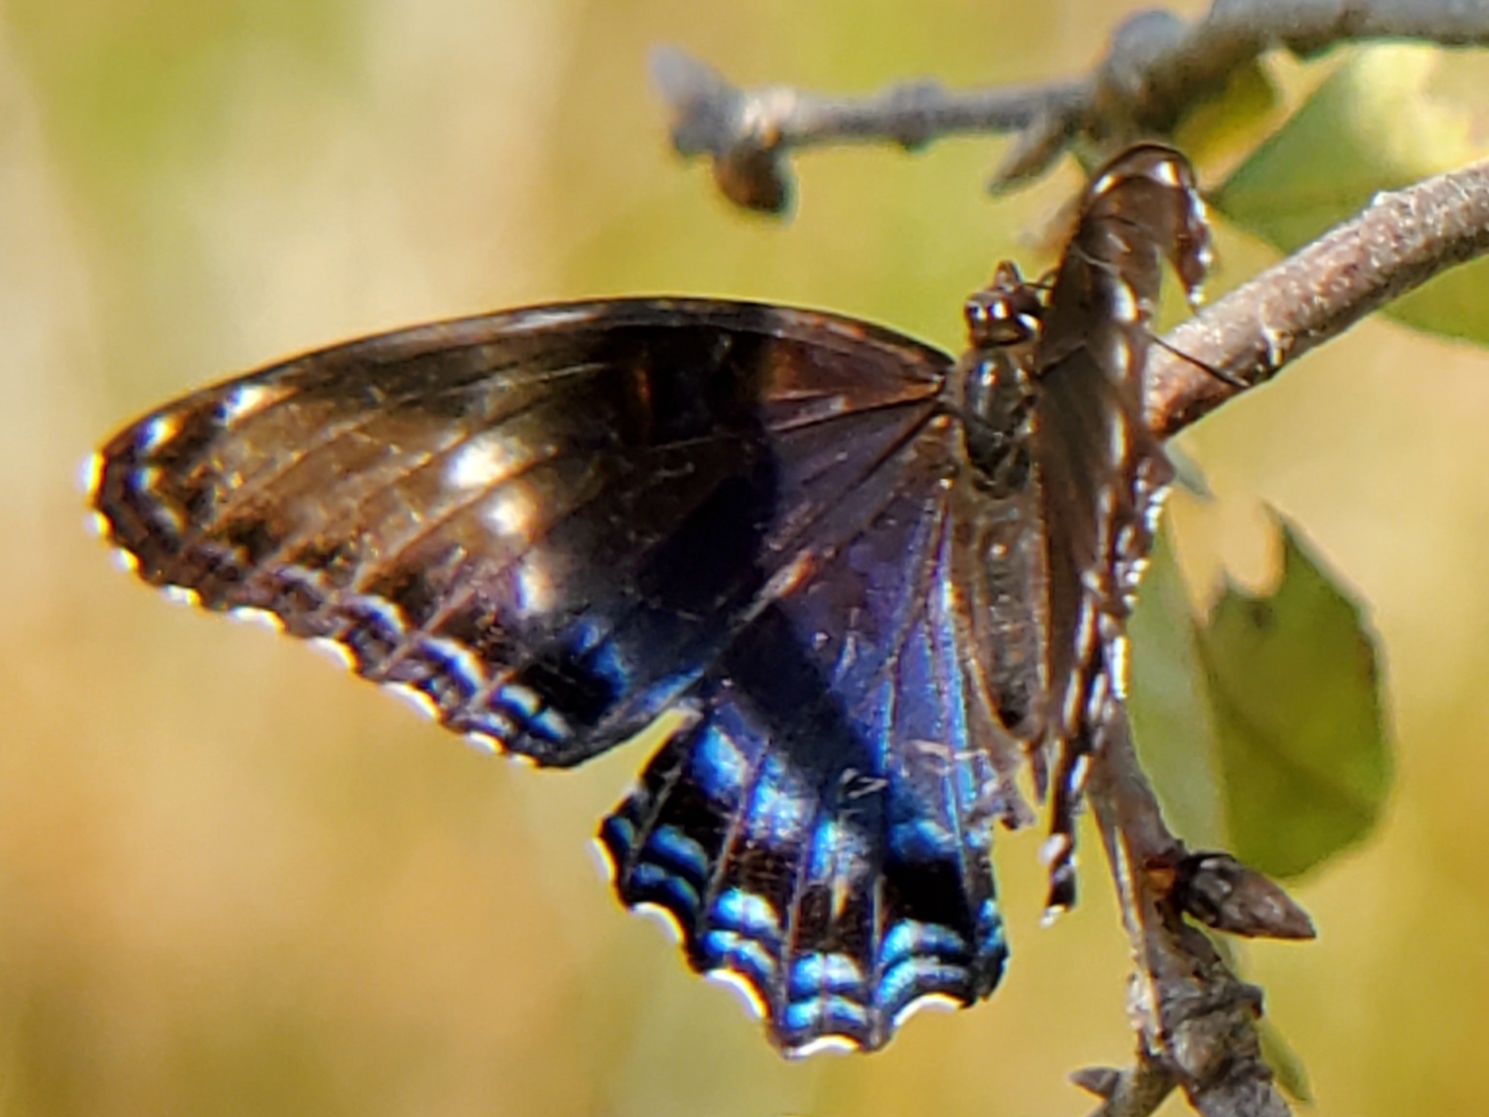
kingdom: Animalia
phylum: Arthropoda
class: Insecta
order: Lepidoptera
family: Nymphalidae
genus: Limenitis
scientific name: Limenitis arthemis
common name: Red-spotted admiral
